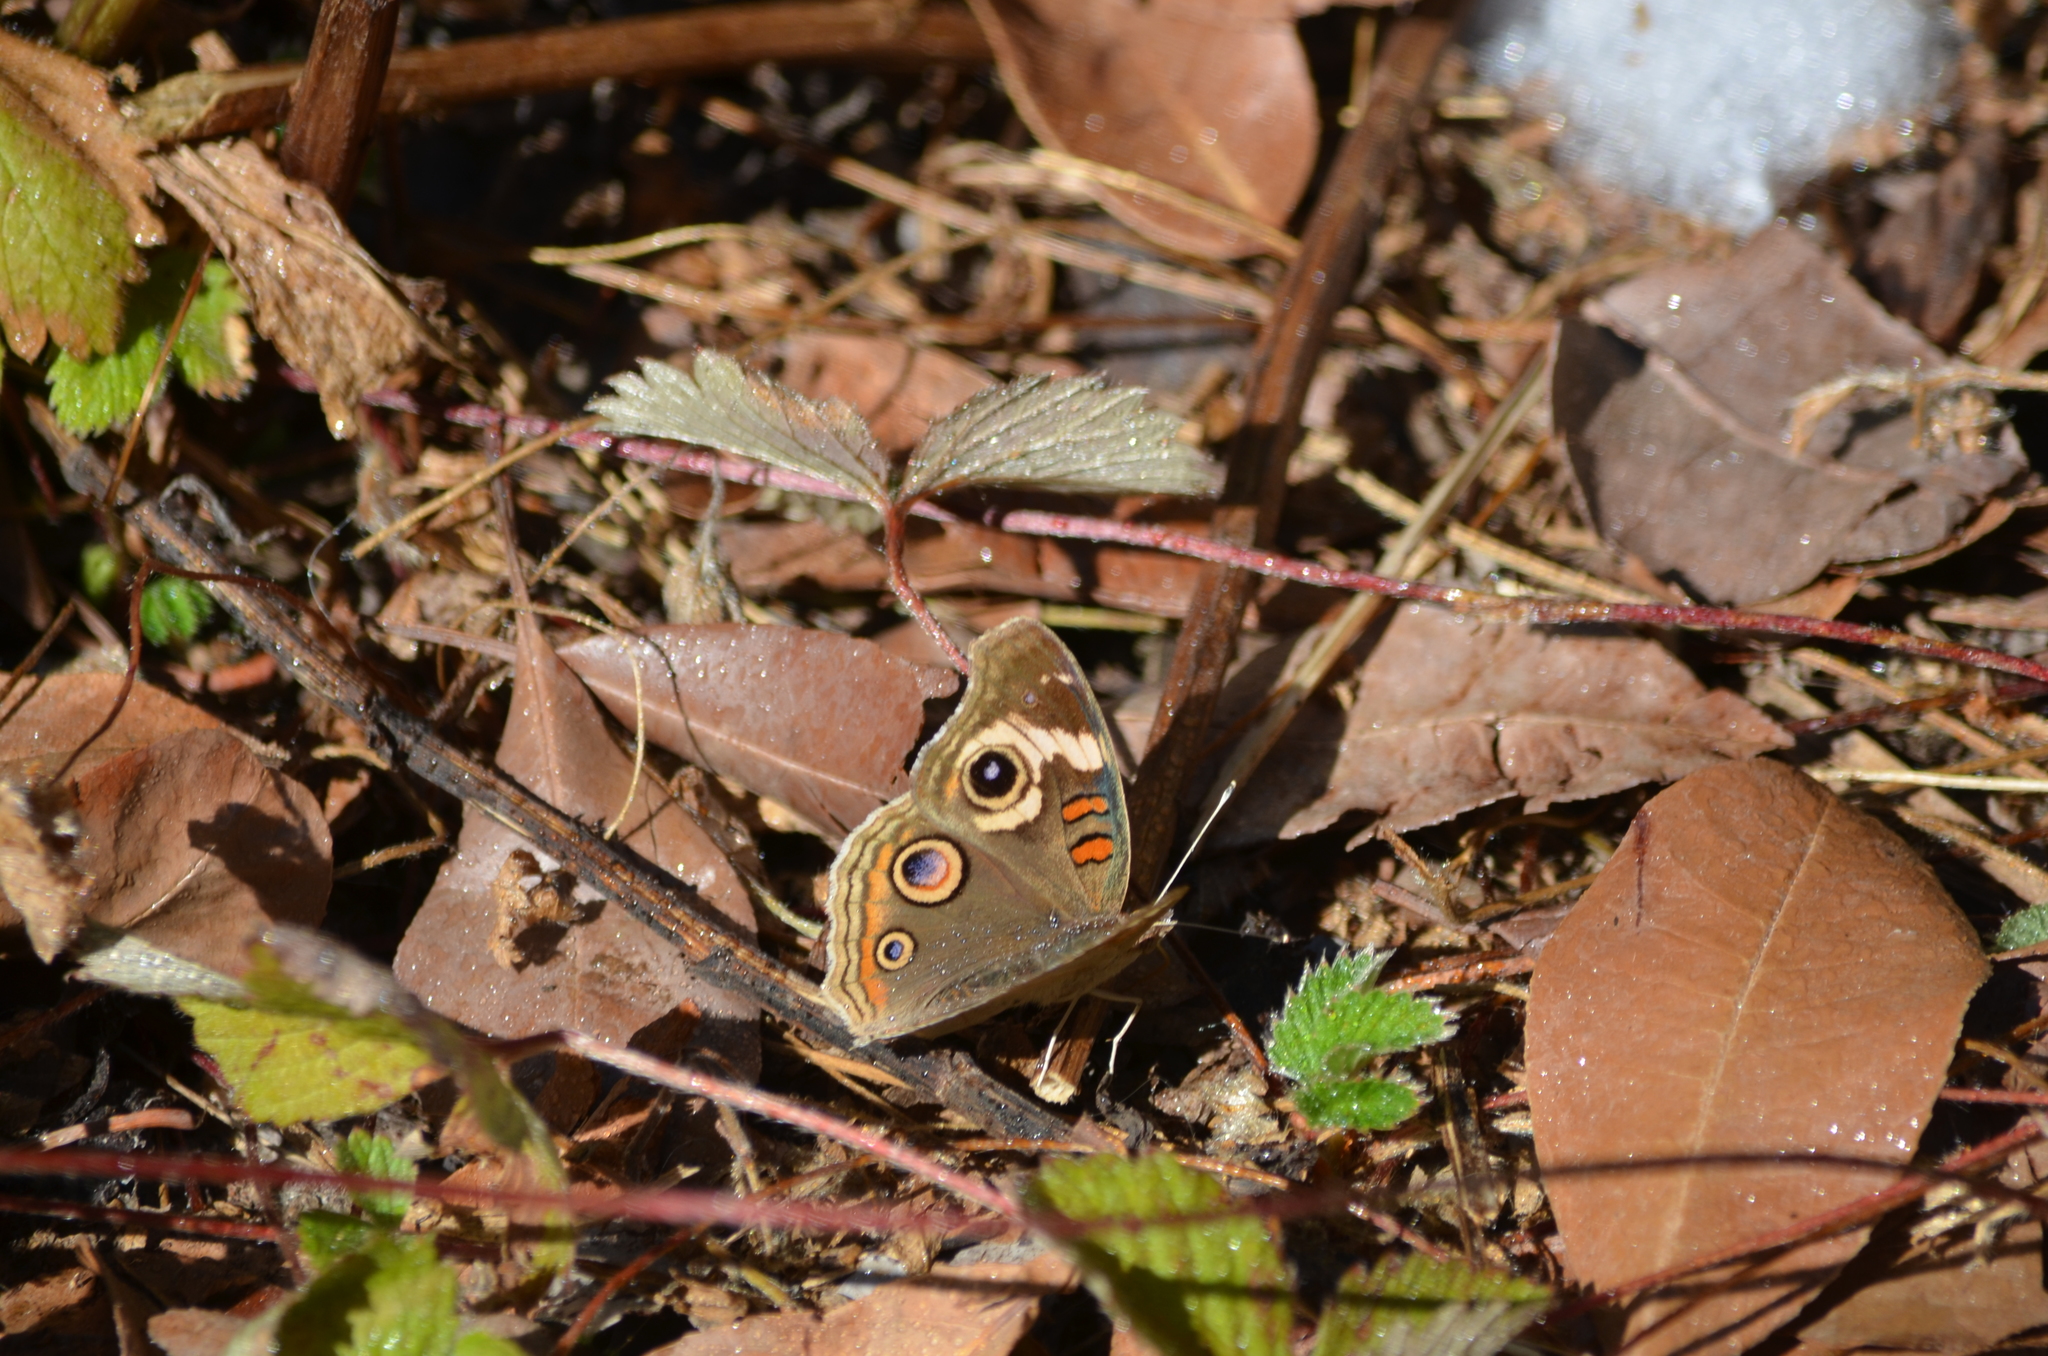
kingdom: Animalia
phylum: Arthropoda
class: Insecta
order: Lepidoptera
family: Nymphalidae
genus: Junonia
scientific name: Junonia grisea
